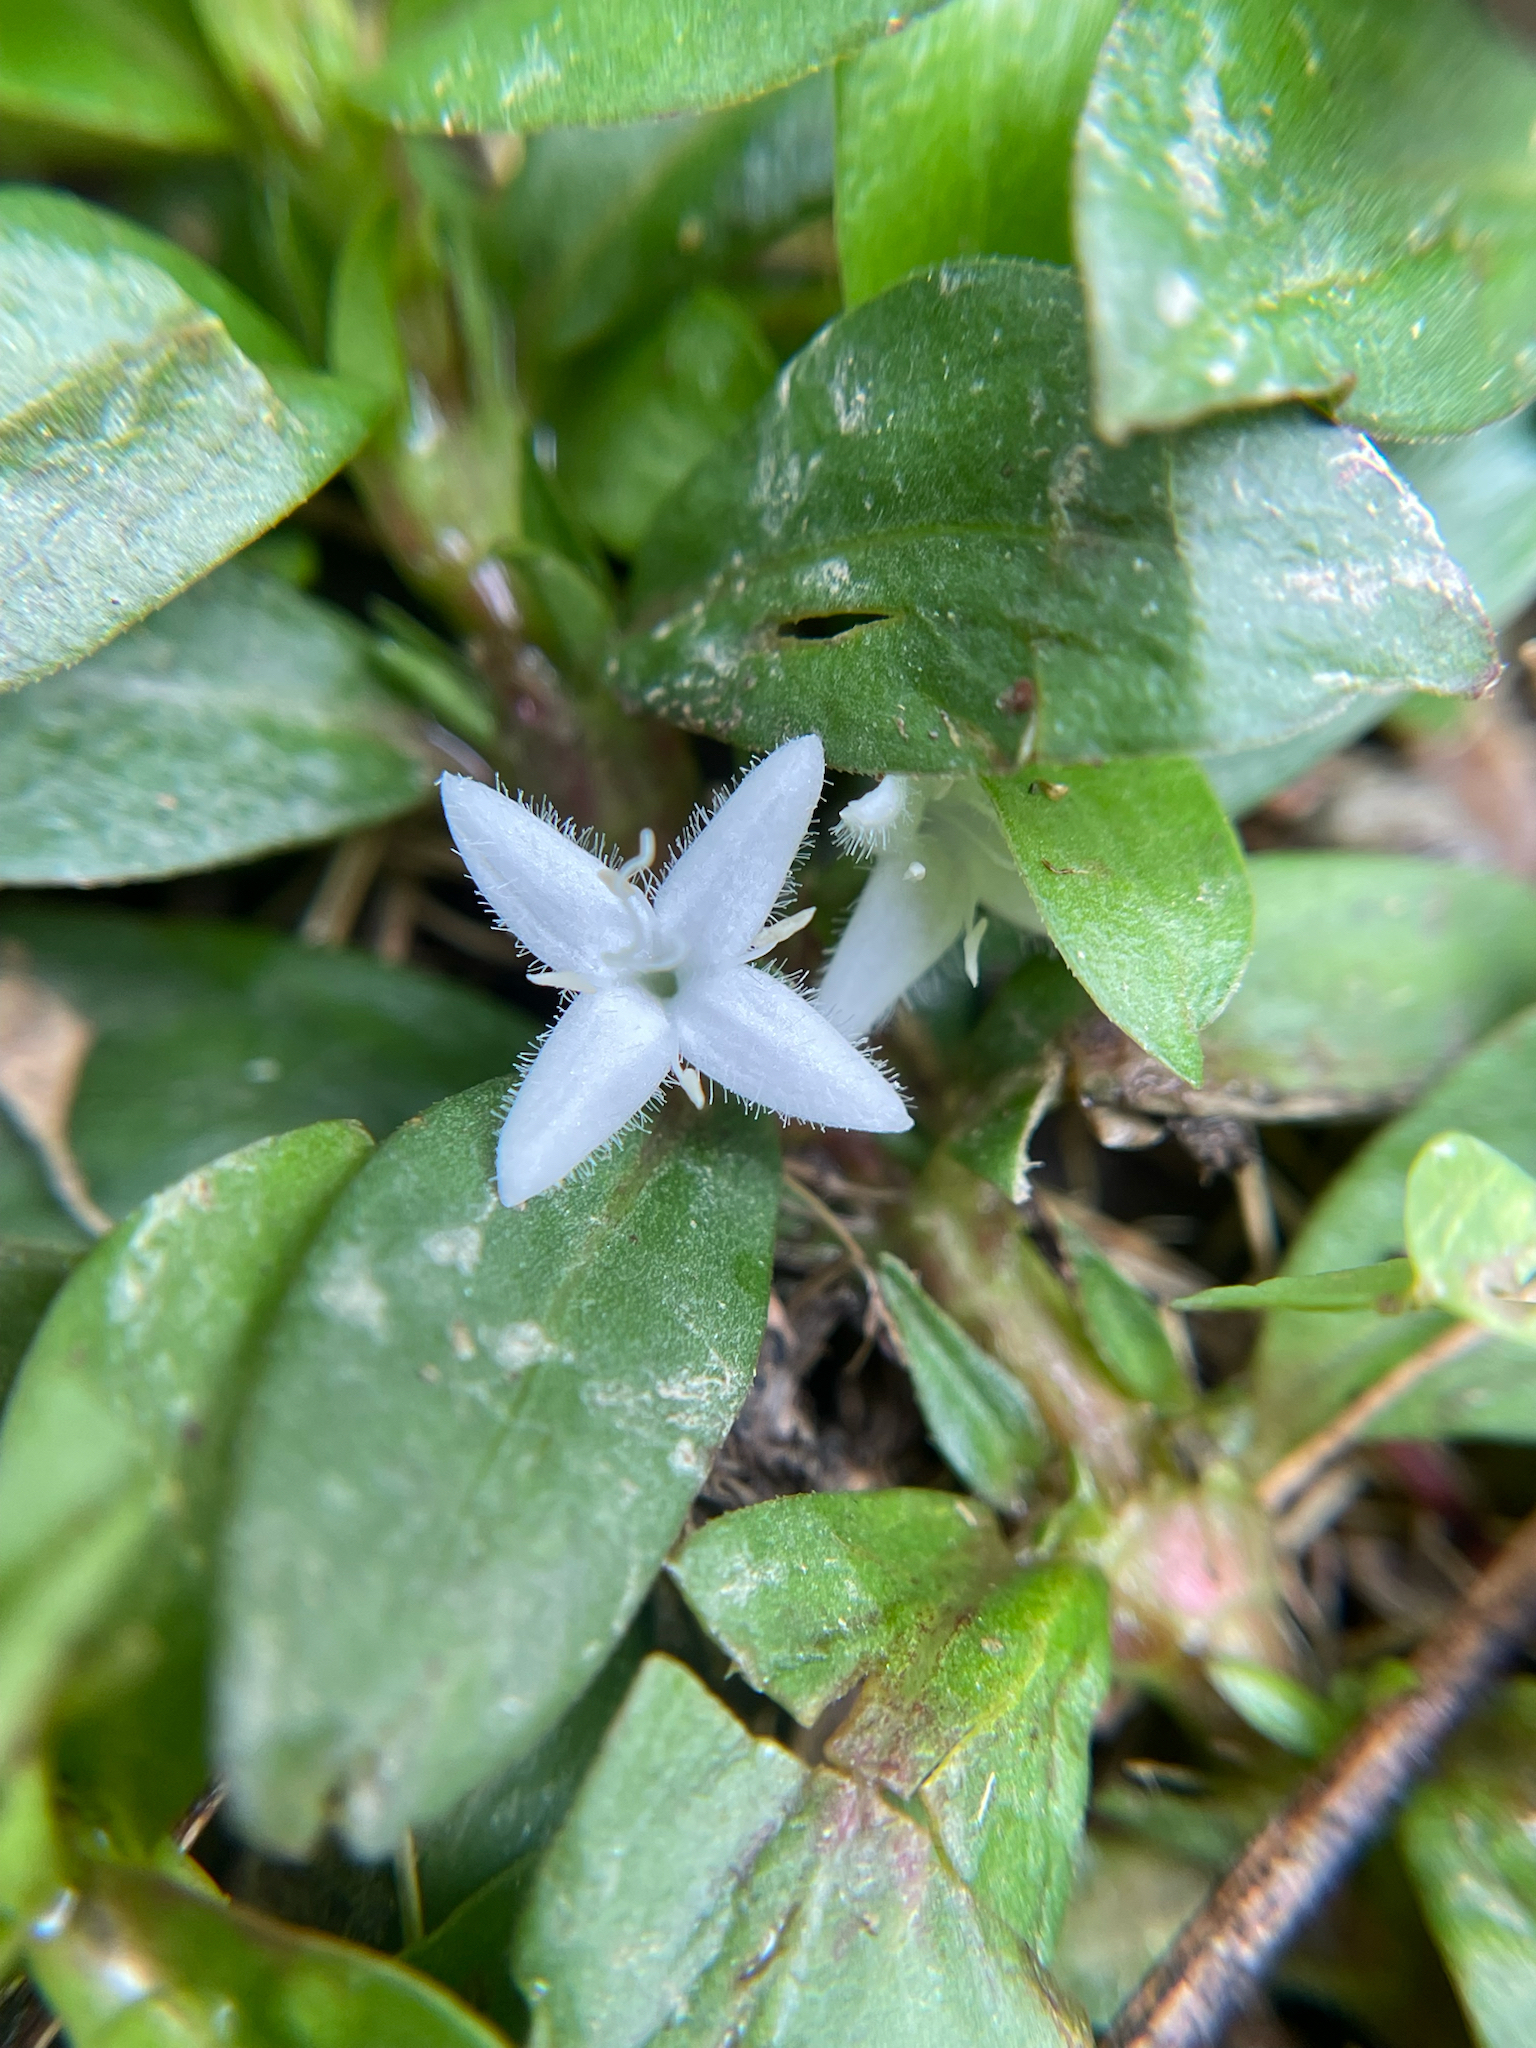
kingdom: Plantae
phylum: Tracheophyta
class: Magnoliopsida
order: Gentianales
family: Rubiaceae
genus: Diodia
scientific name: Diodia virginiana
